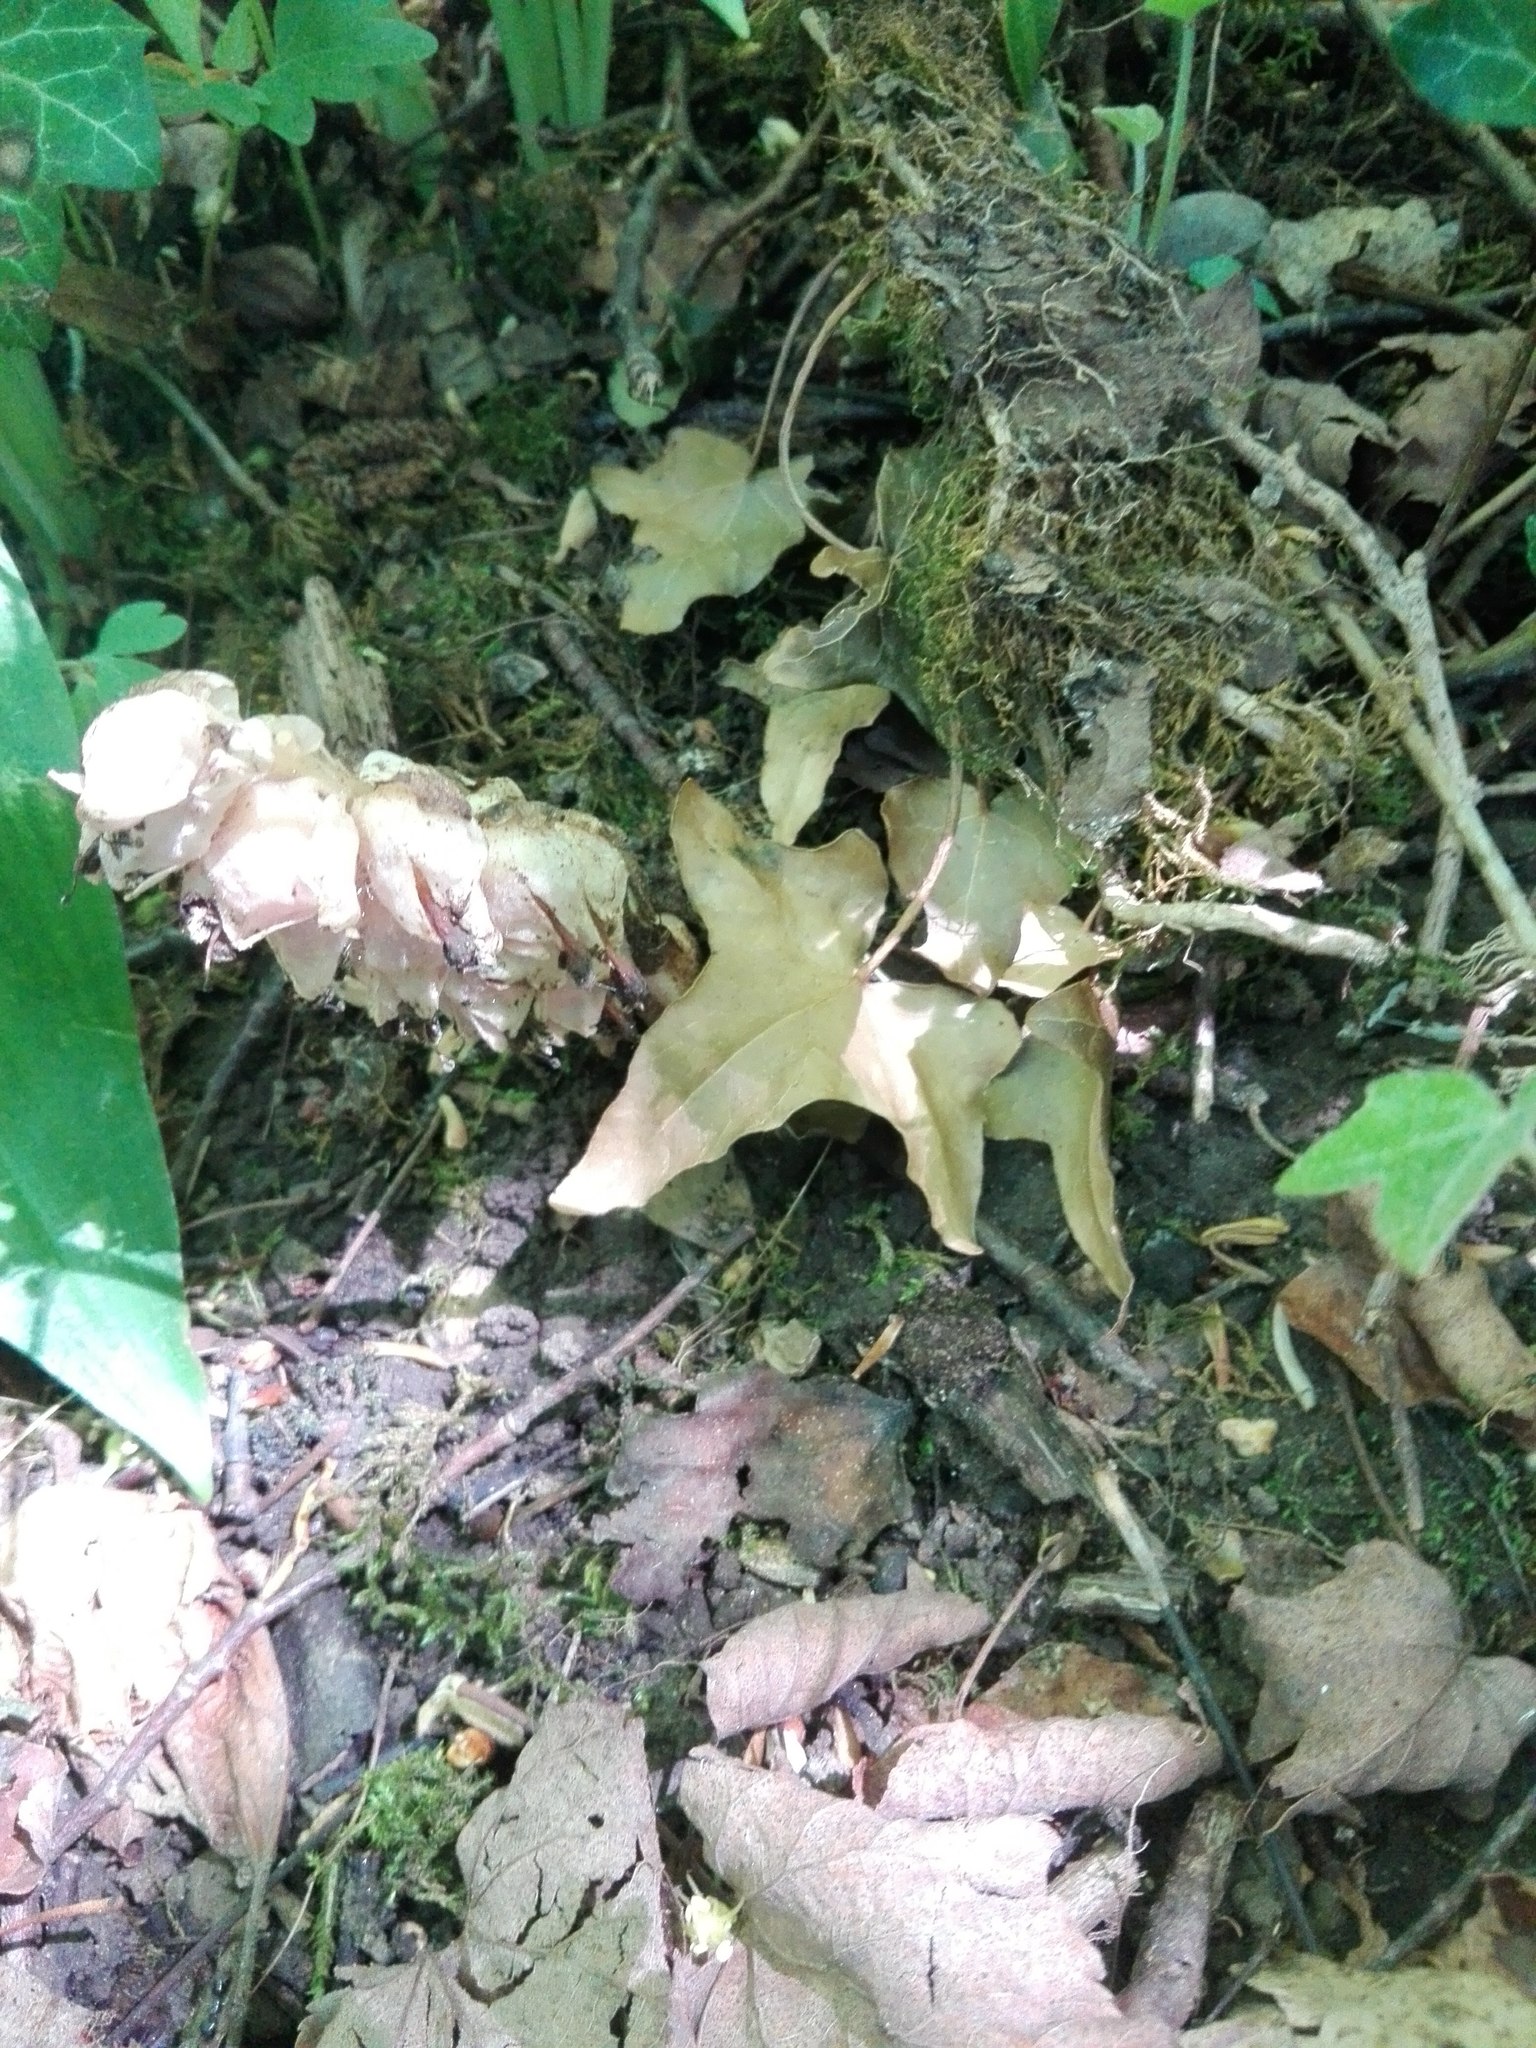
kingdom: Plantae
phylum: Tracheophyta
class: Magnoliopsida
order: Lamiales
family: Orobanchaceae
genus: Lathraea
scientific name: Lathraea squamaria
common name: Toothwort
